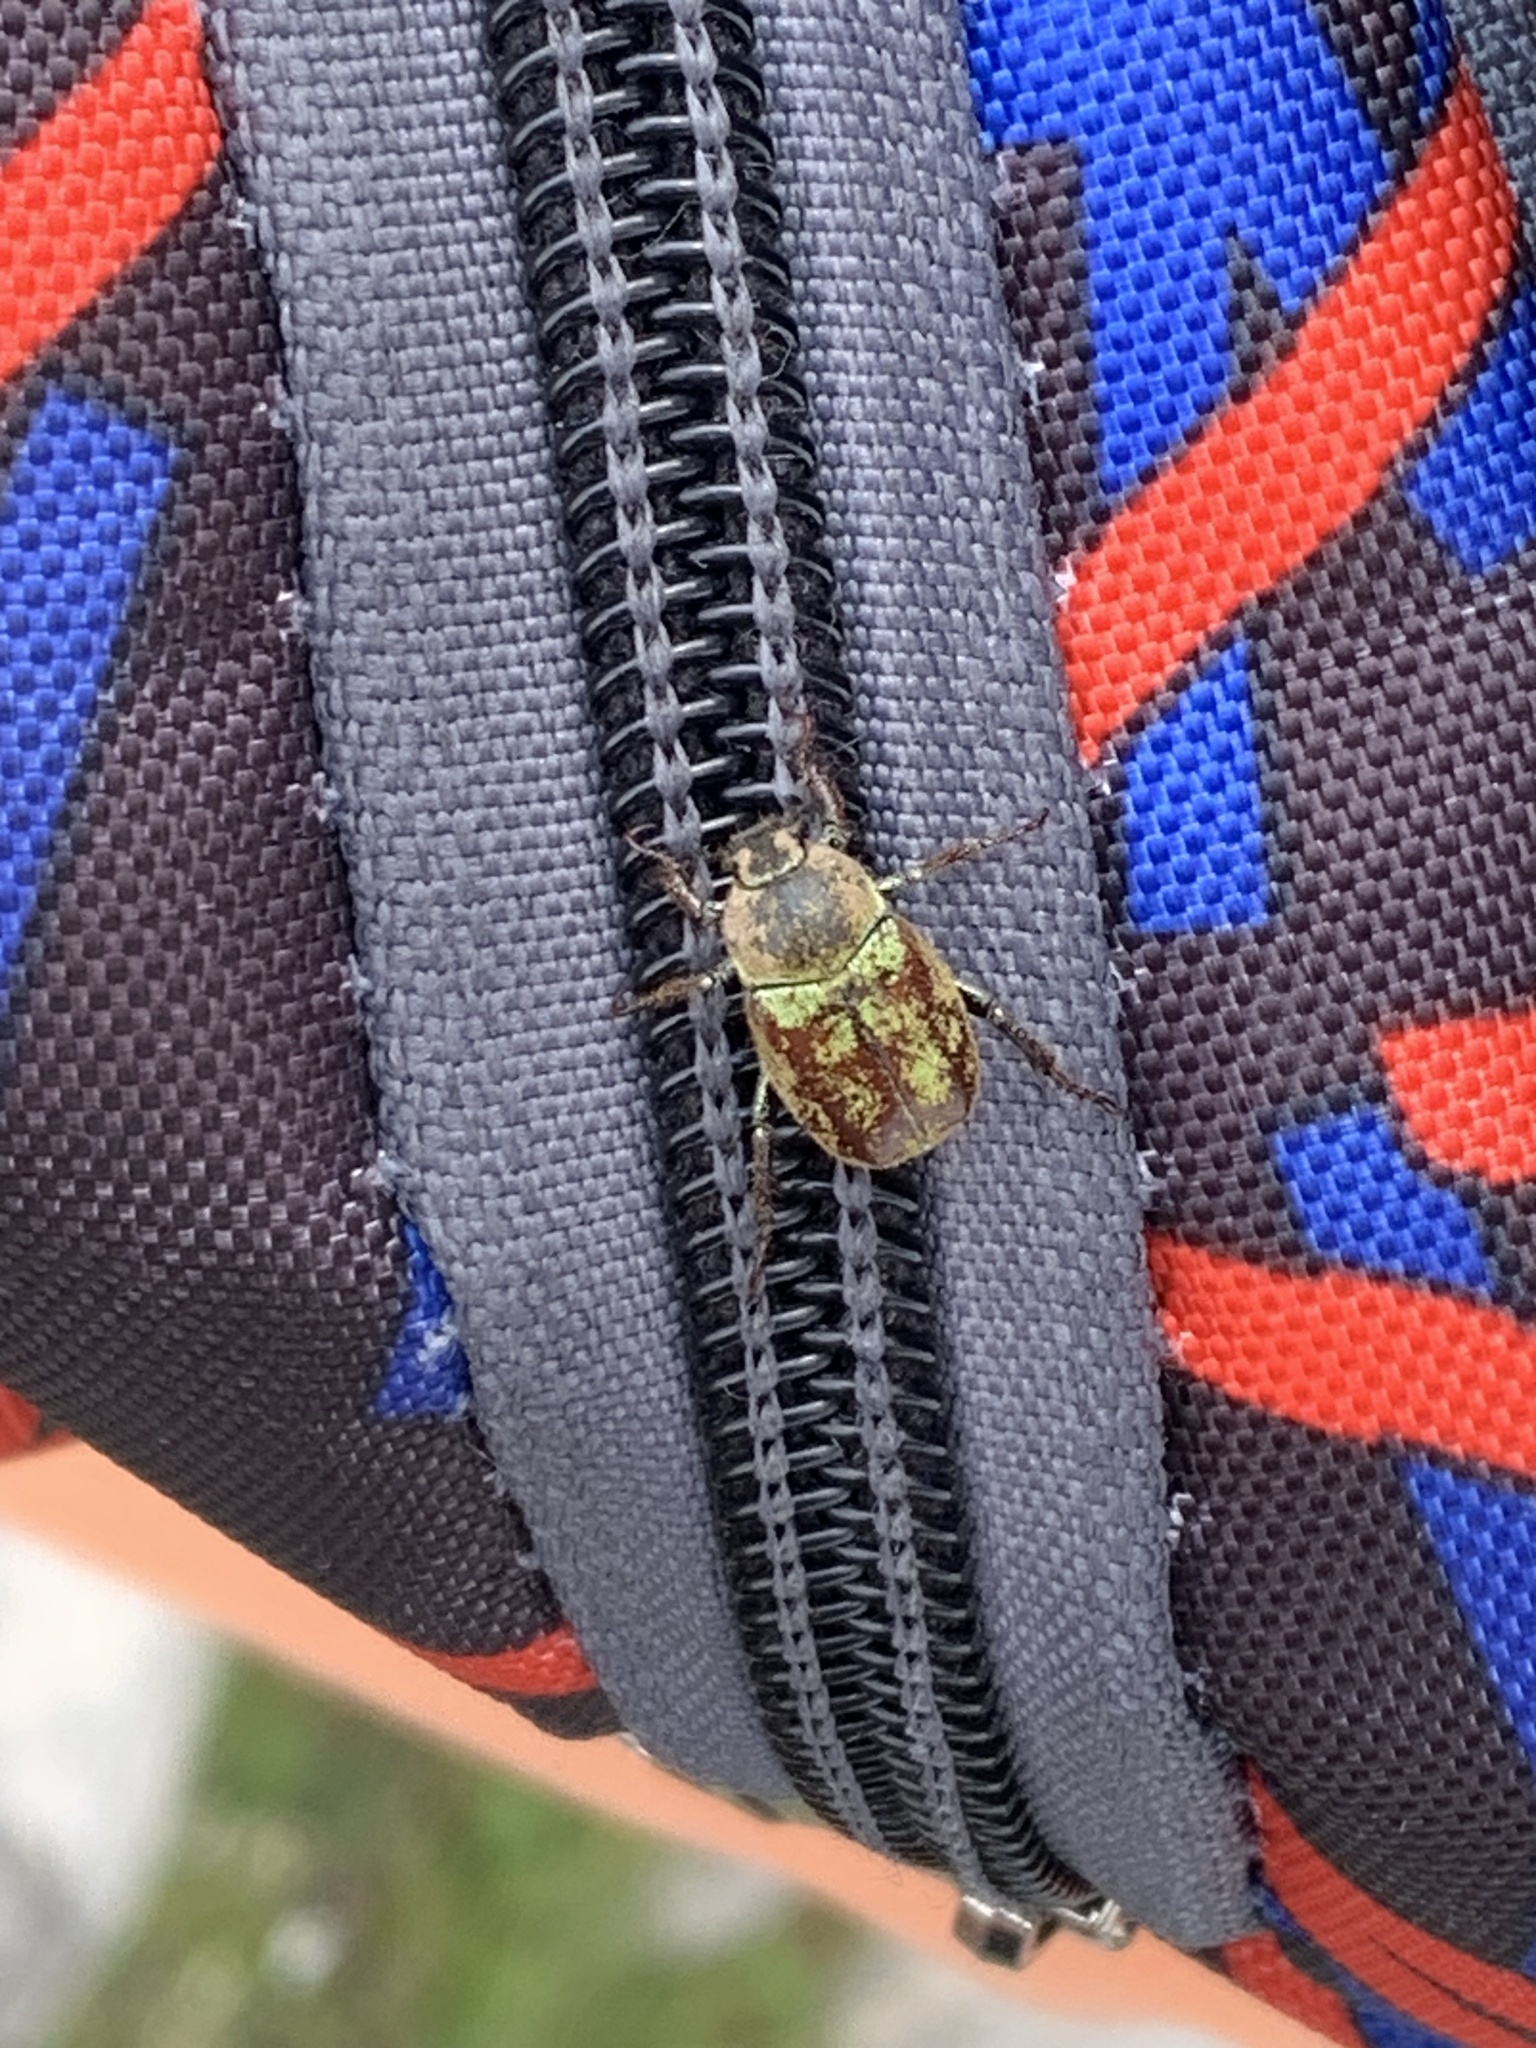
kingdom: Animalia
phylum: Arthropoda
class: Insecta
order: Coleoptera
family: Scarabaeidae
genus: Hoplia
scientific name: Hoplia argentea
